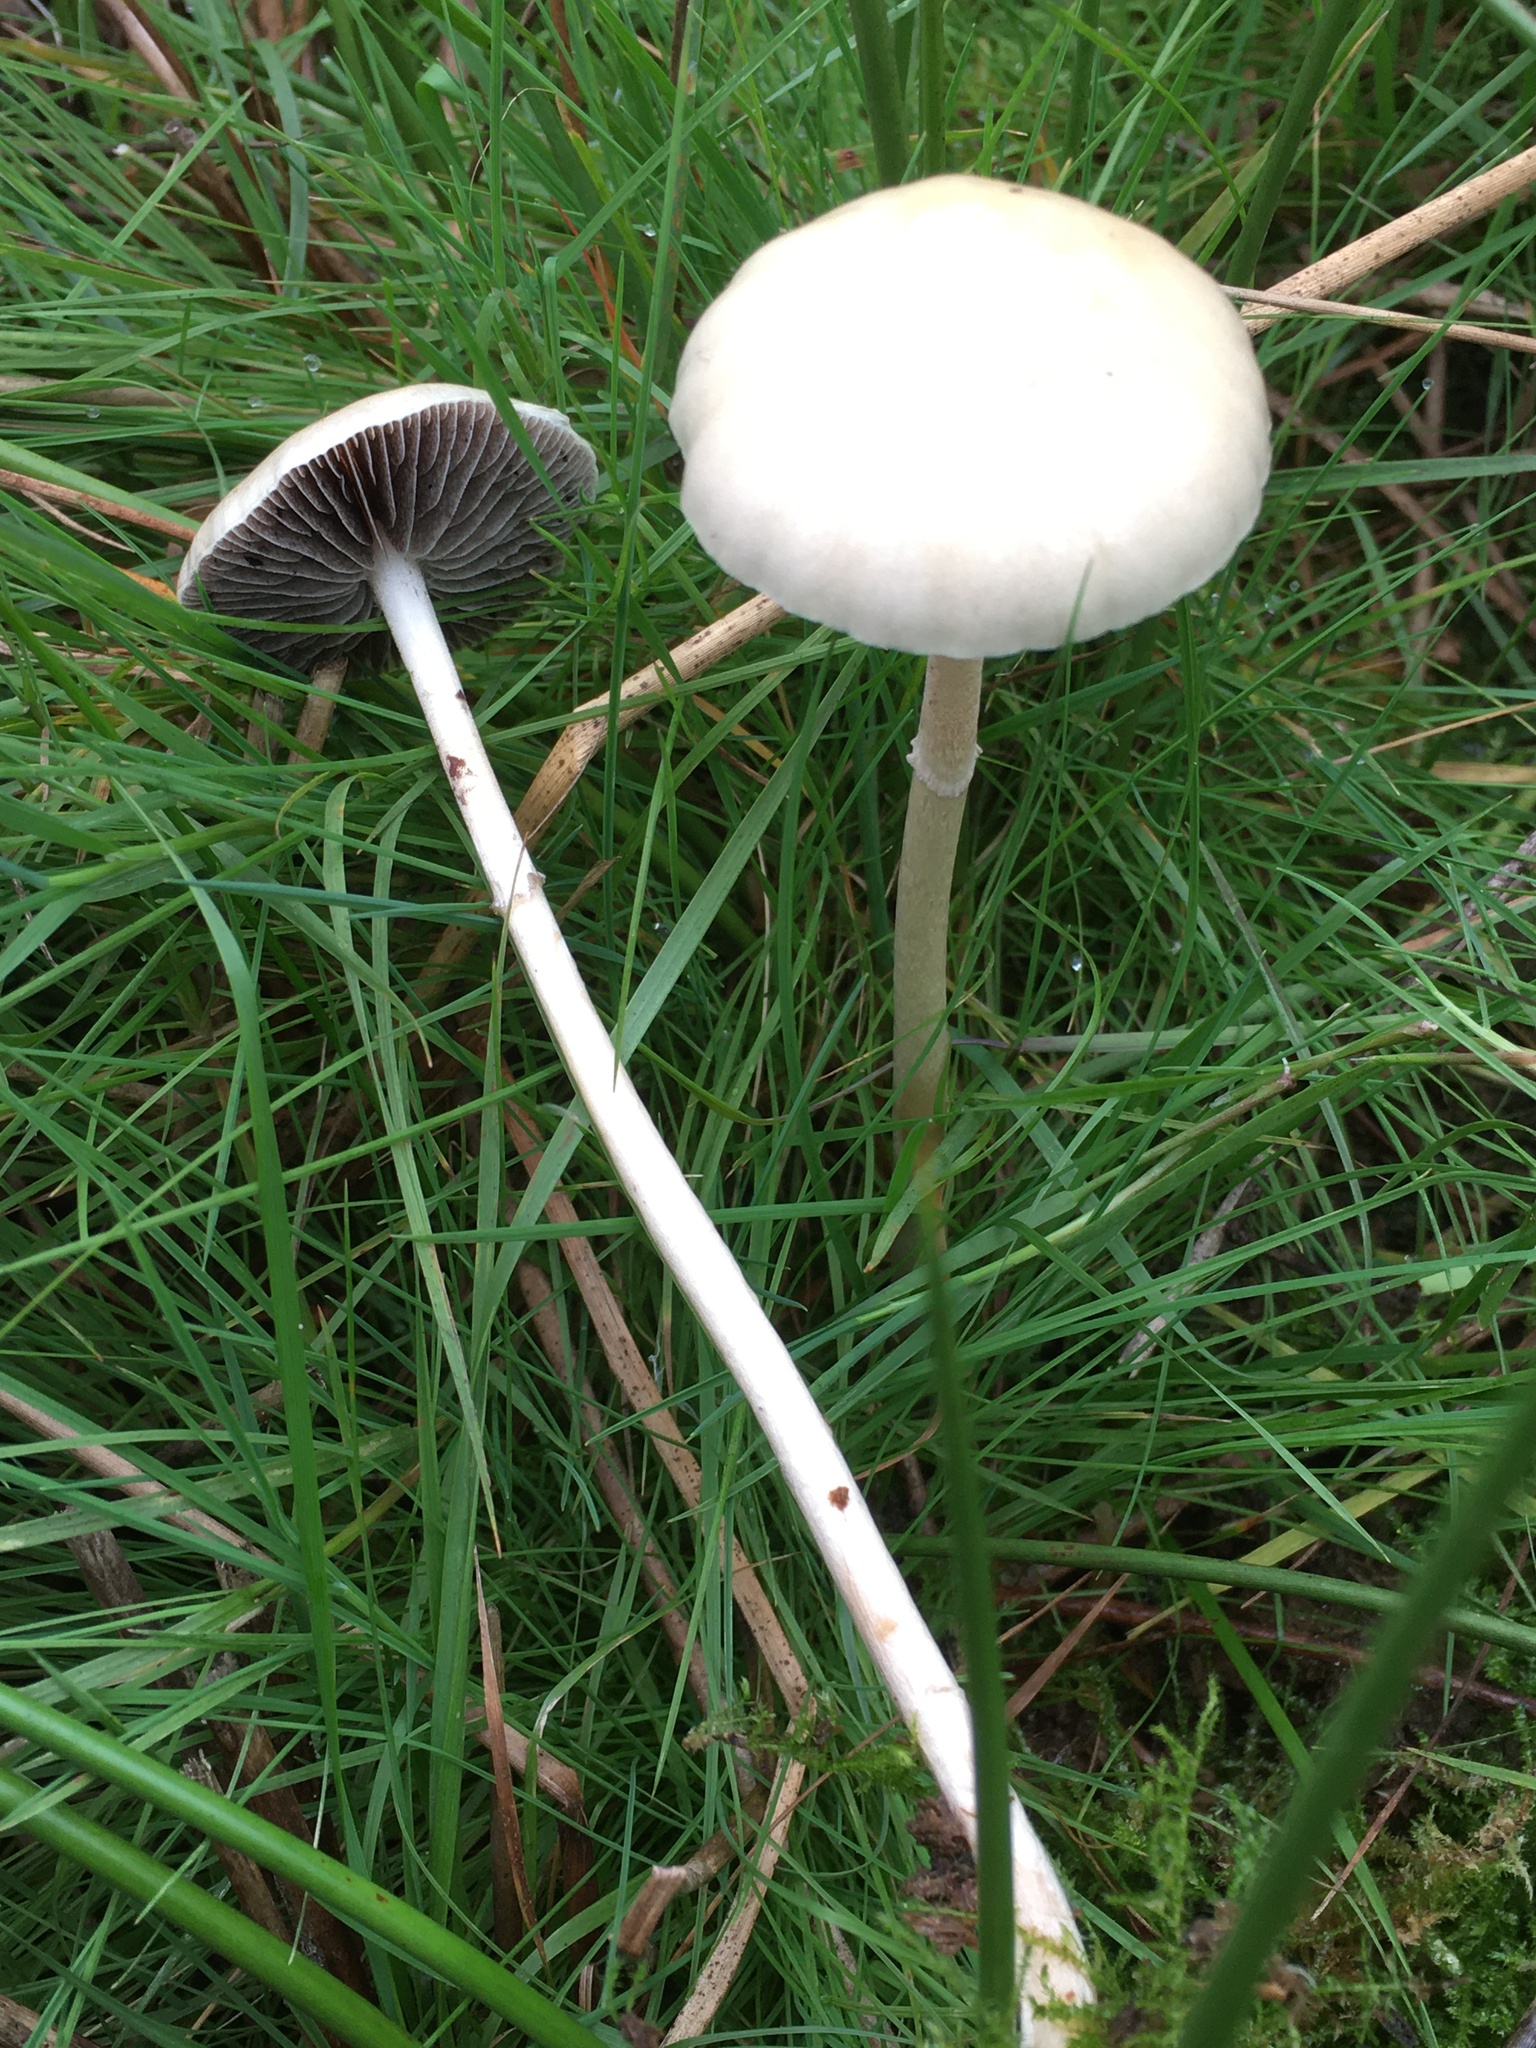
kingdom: Fungi
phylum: Basidiomycota
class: Agaricomycetes
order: Agaricales
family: Strophariaceae
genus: Protostropharia
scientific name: Protostropharia semiglobata
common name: Dung roundhead
